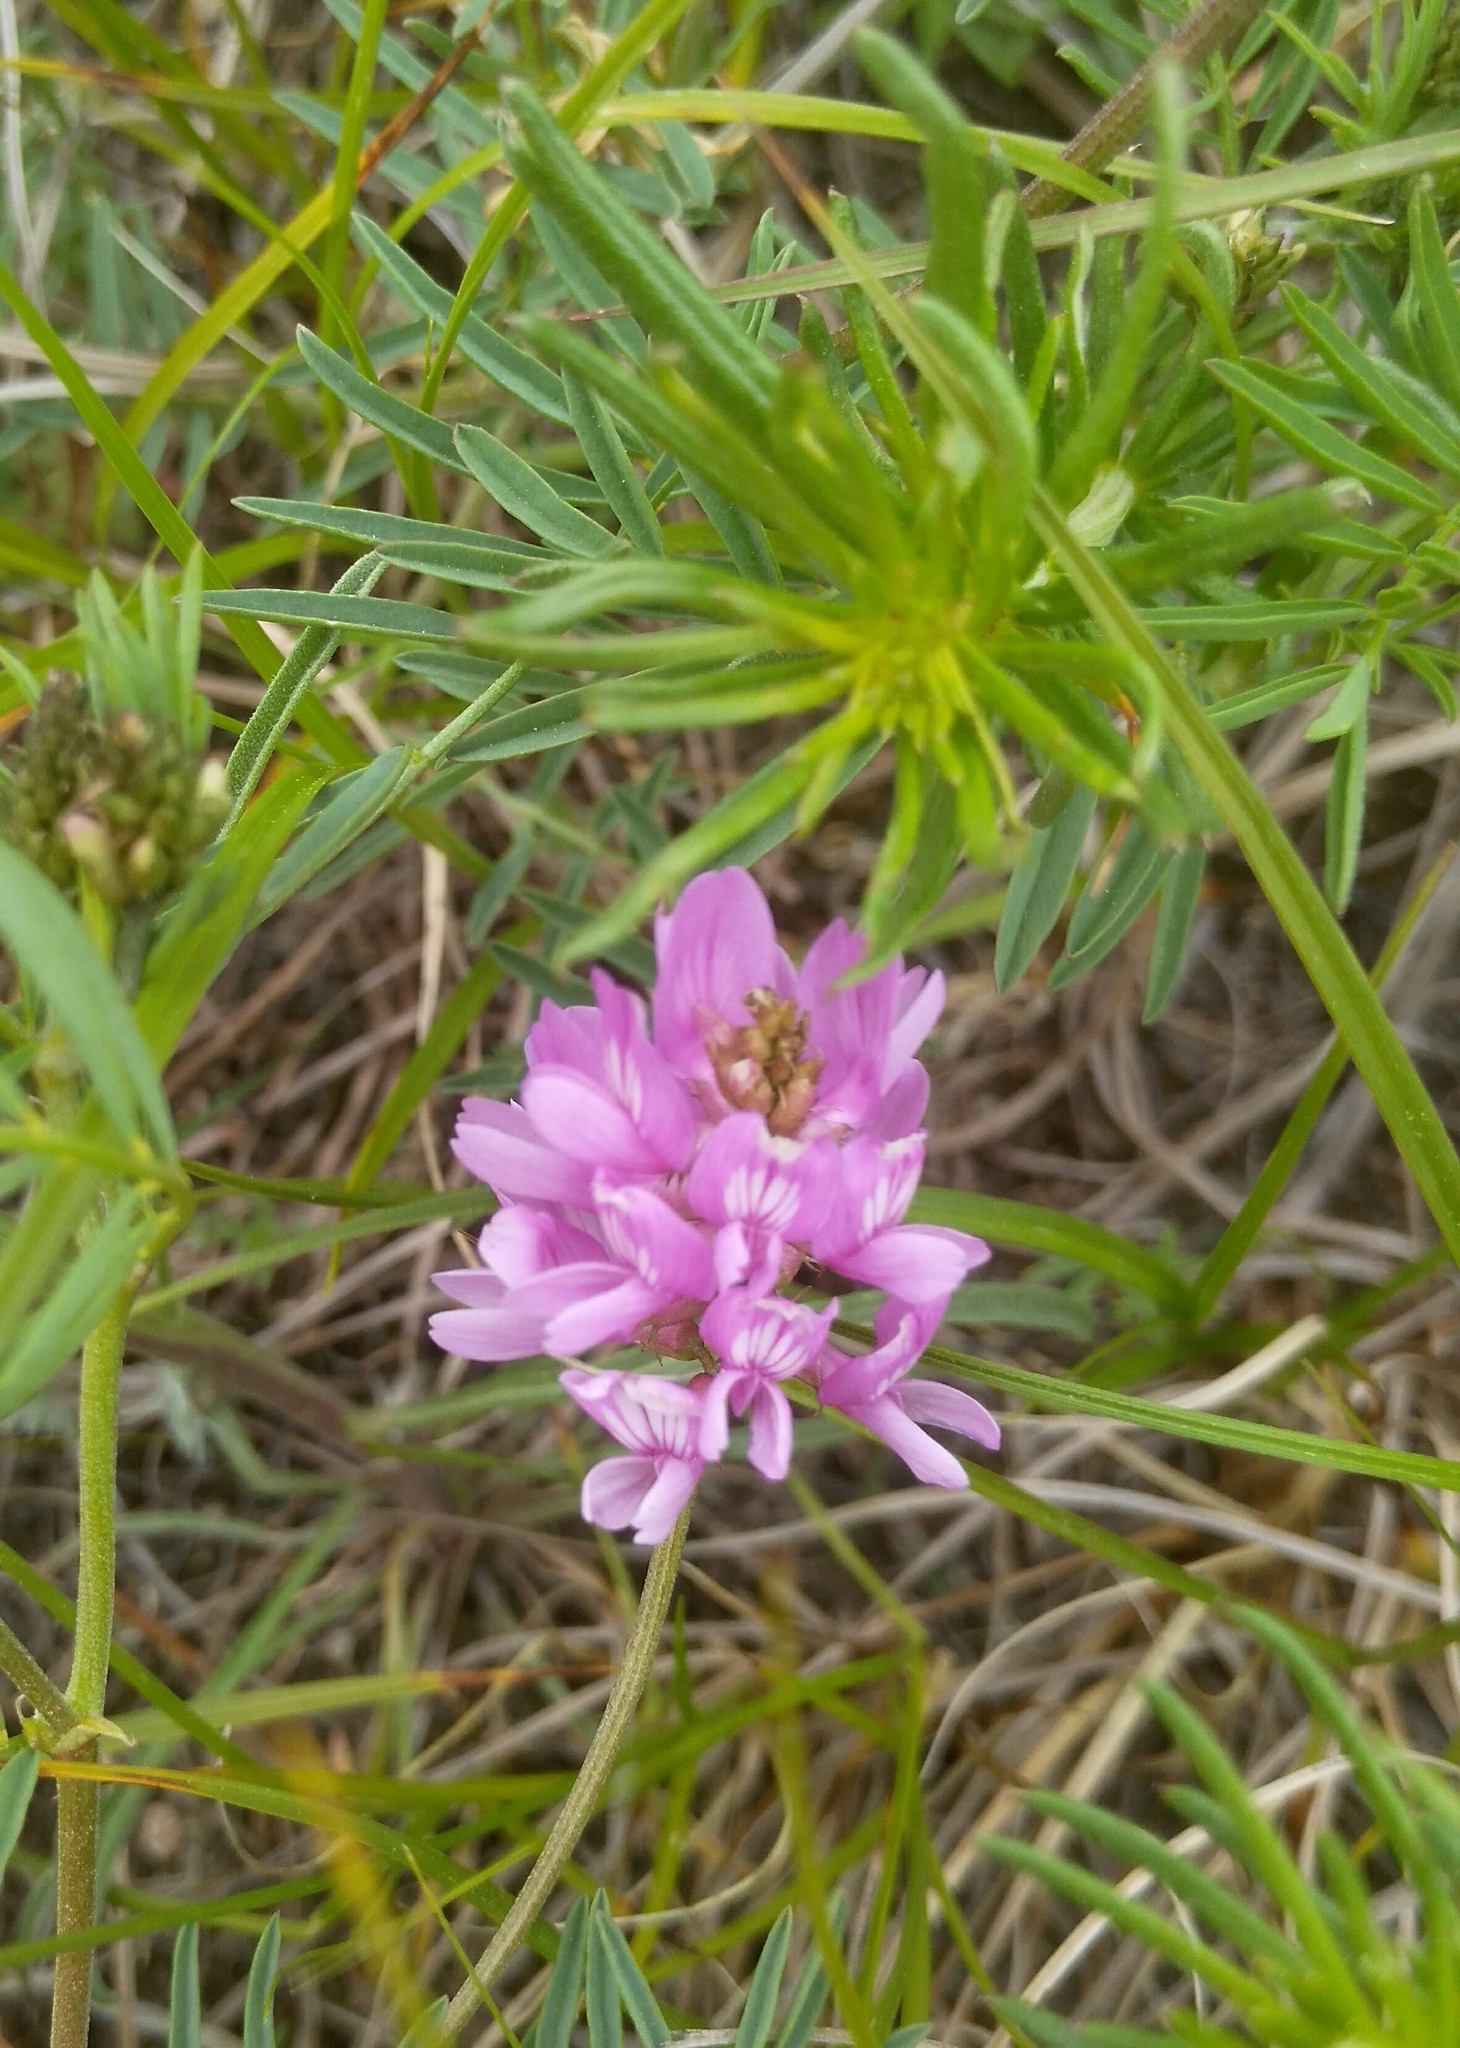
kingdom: Plantae
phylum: Tracheophyta
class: Magnoliopsida
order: Fabales
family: Fabaceae
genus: Astragalus
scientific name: Astragalus versicolor
